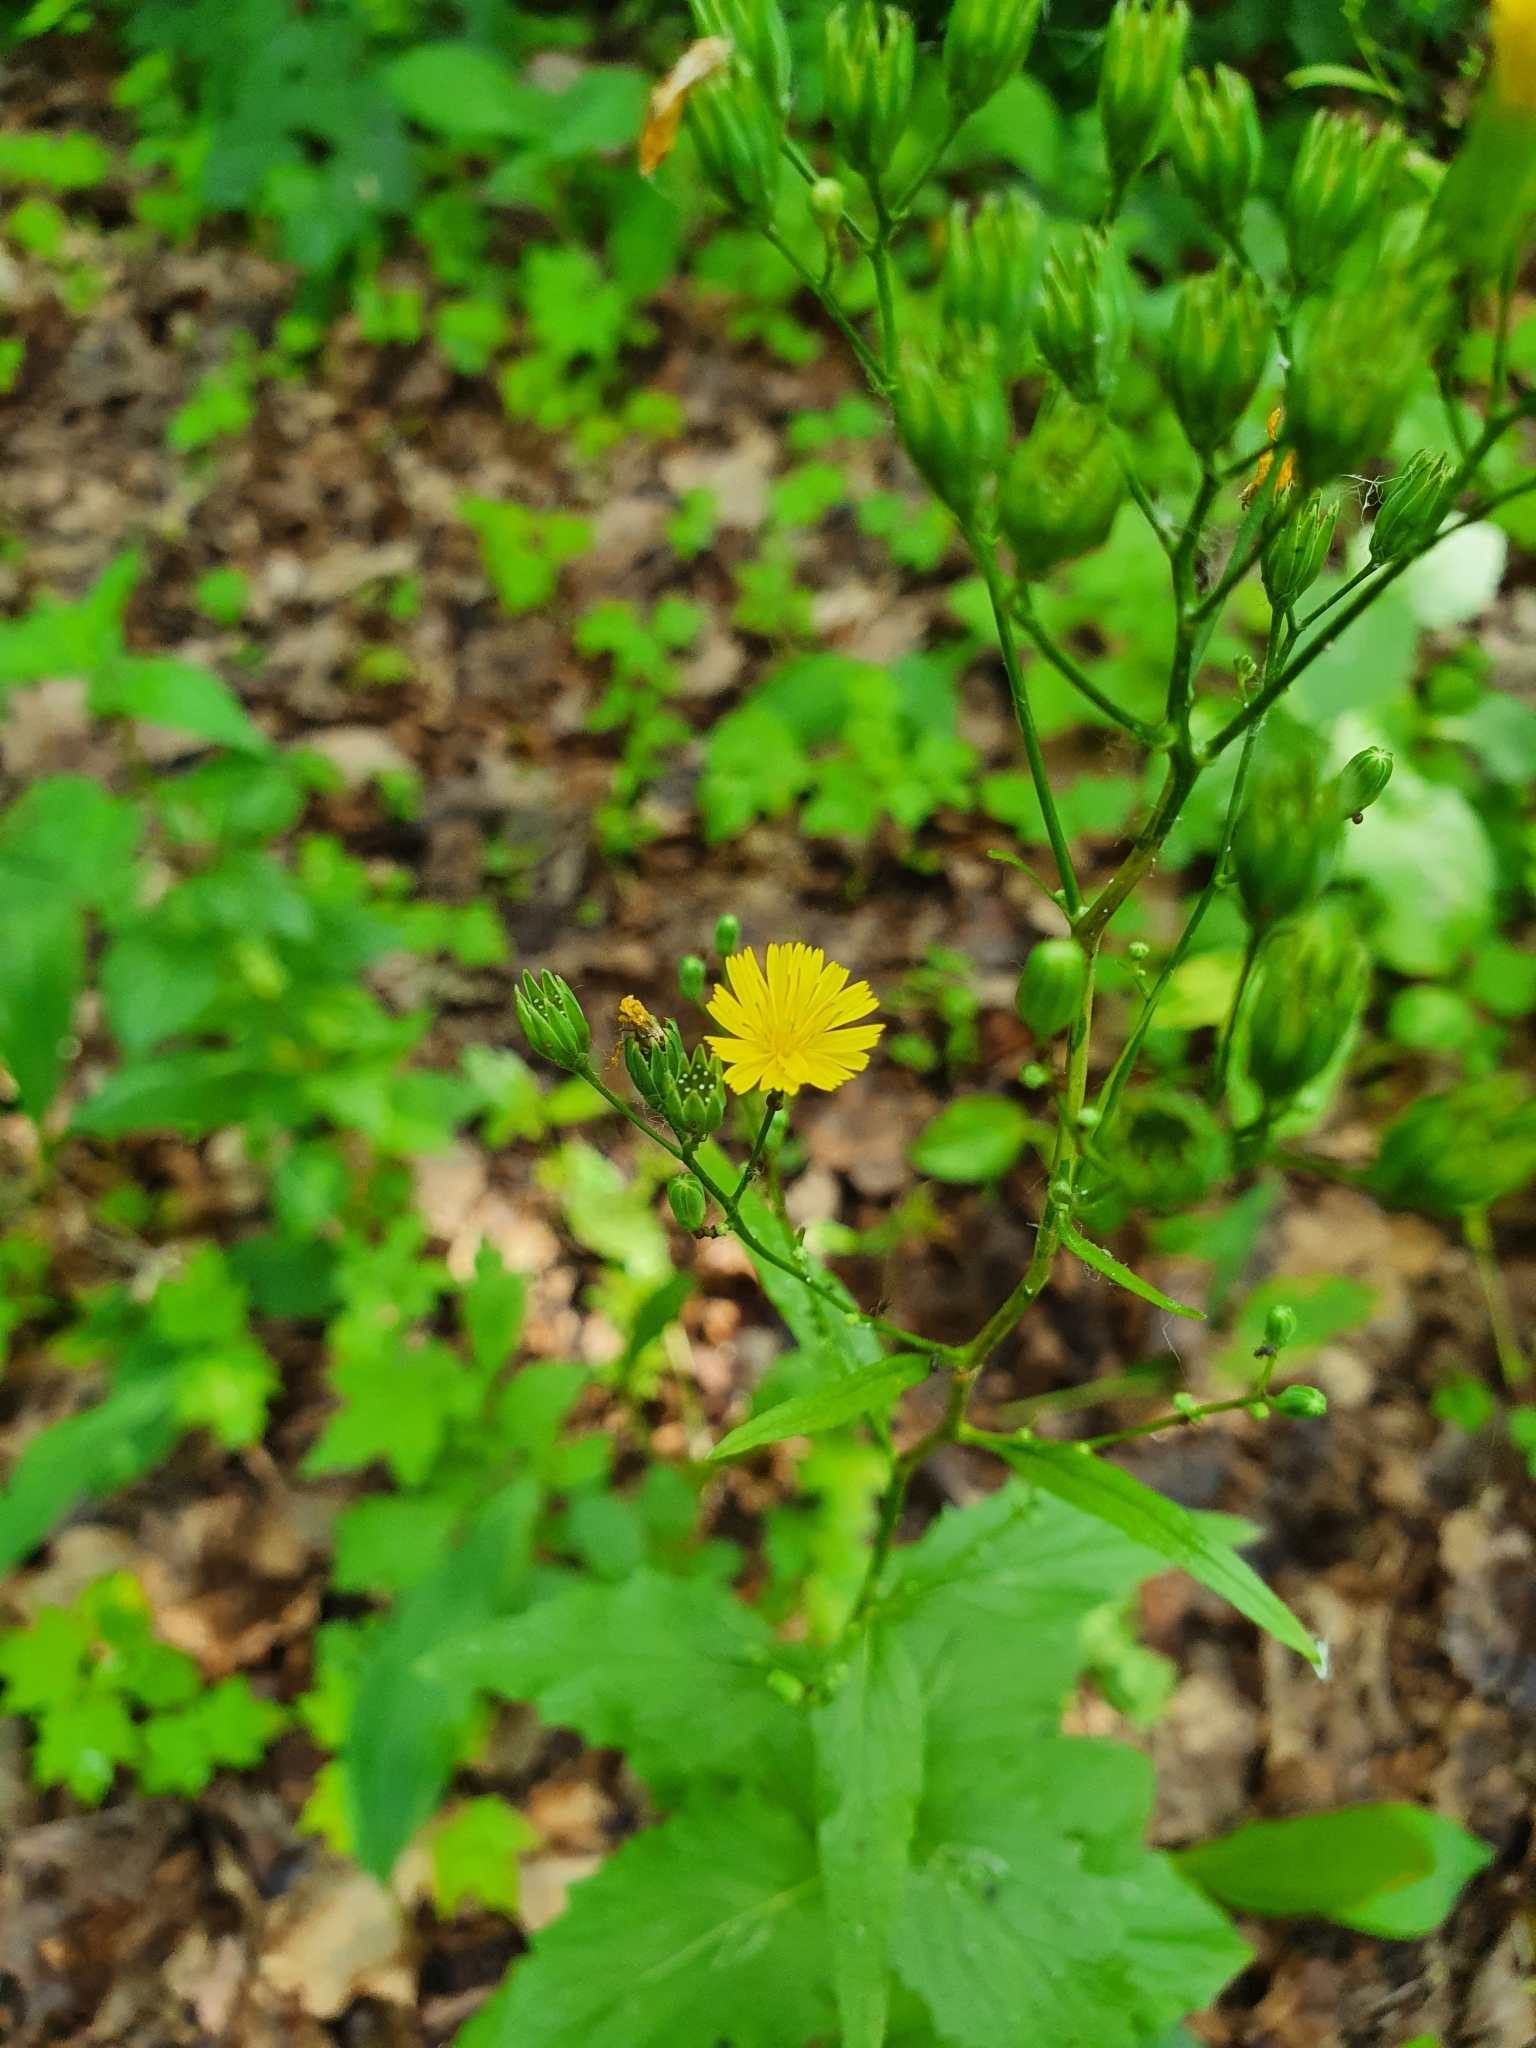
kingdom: Plantae
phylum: Tracheophyta
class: Magnoliopsida
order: Asterales
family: Asteraceae
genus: Lapsana
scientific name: Lapsana communis
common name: Nipplewort
